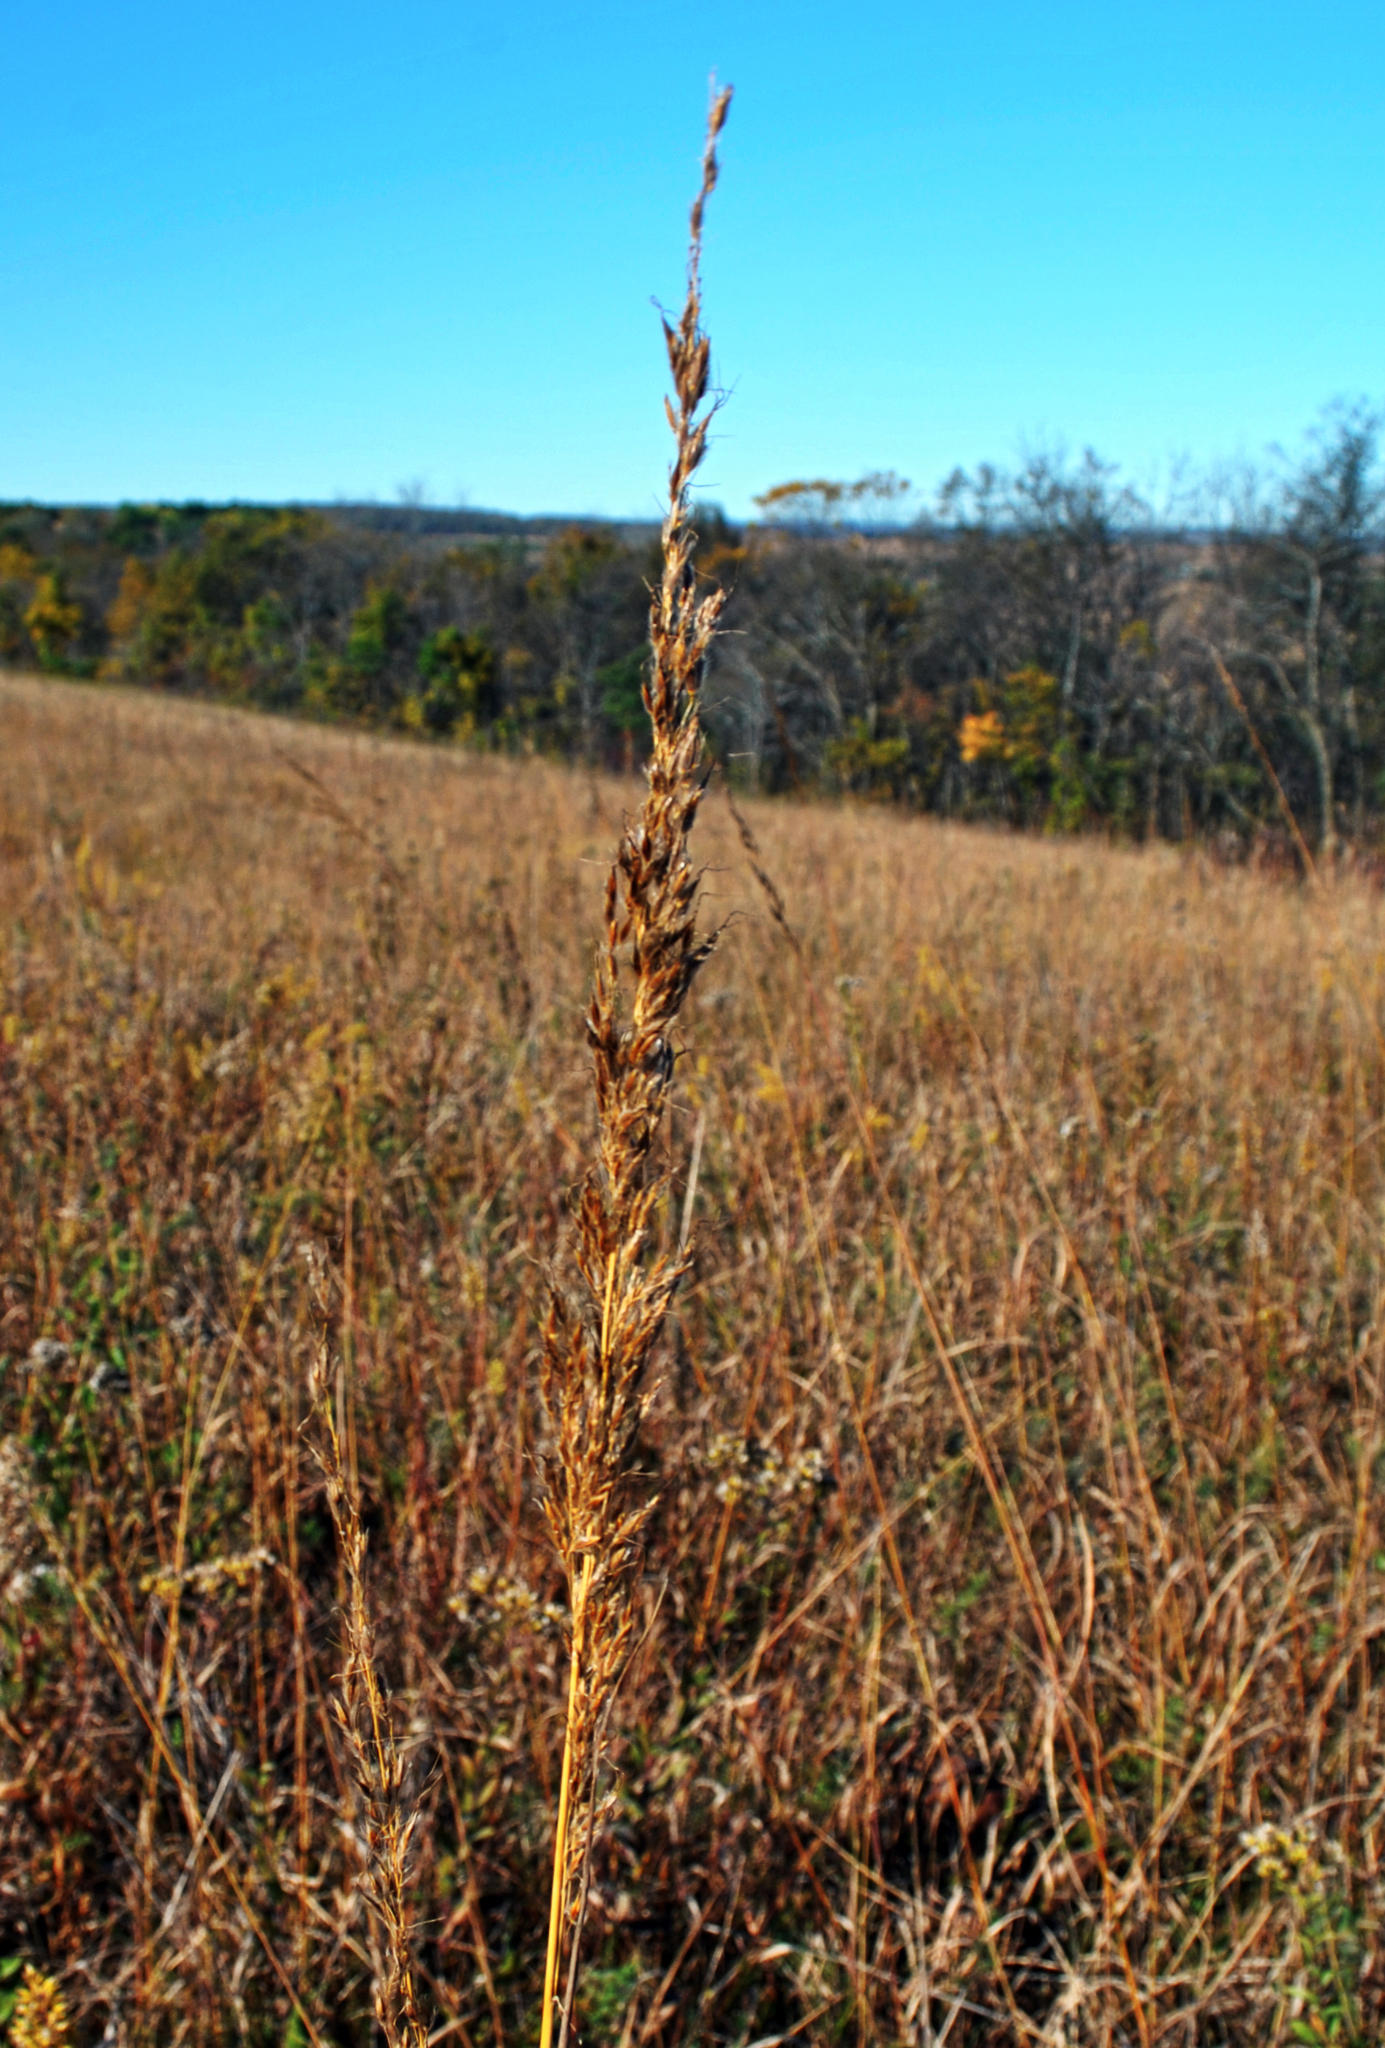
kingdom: Plantae
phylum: Tracheophyta
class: Liliopsida
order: Poales
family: Poaceae
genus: Sorghastrum
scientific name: Sorghastrum nutans
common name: Indian grass
